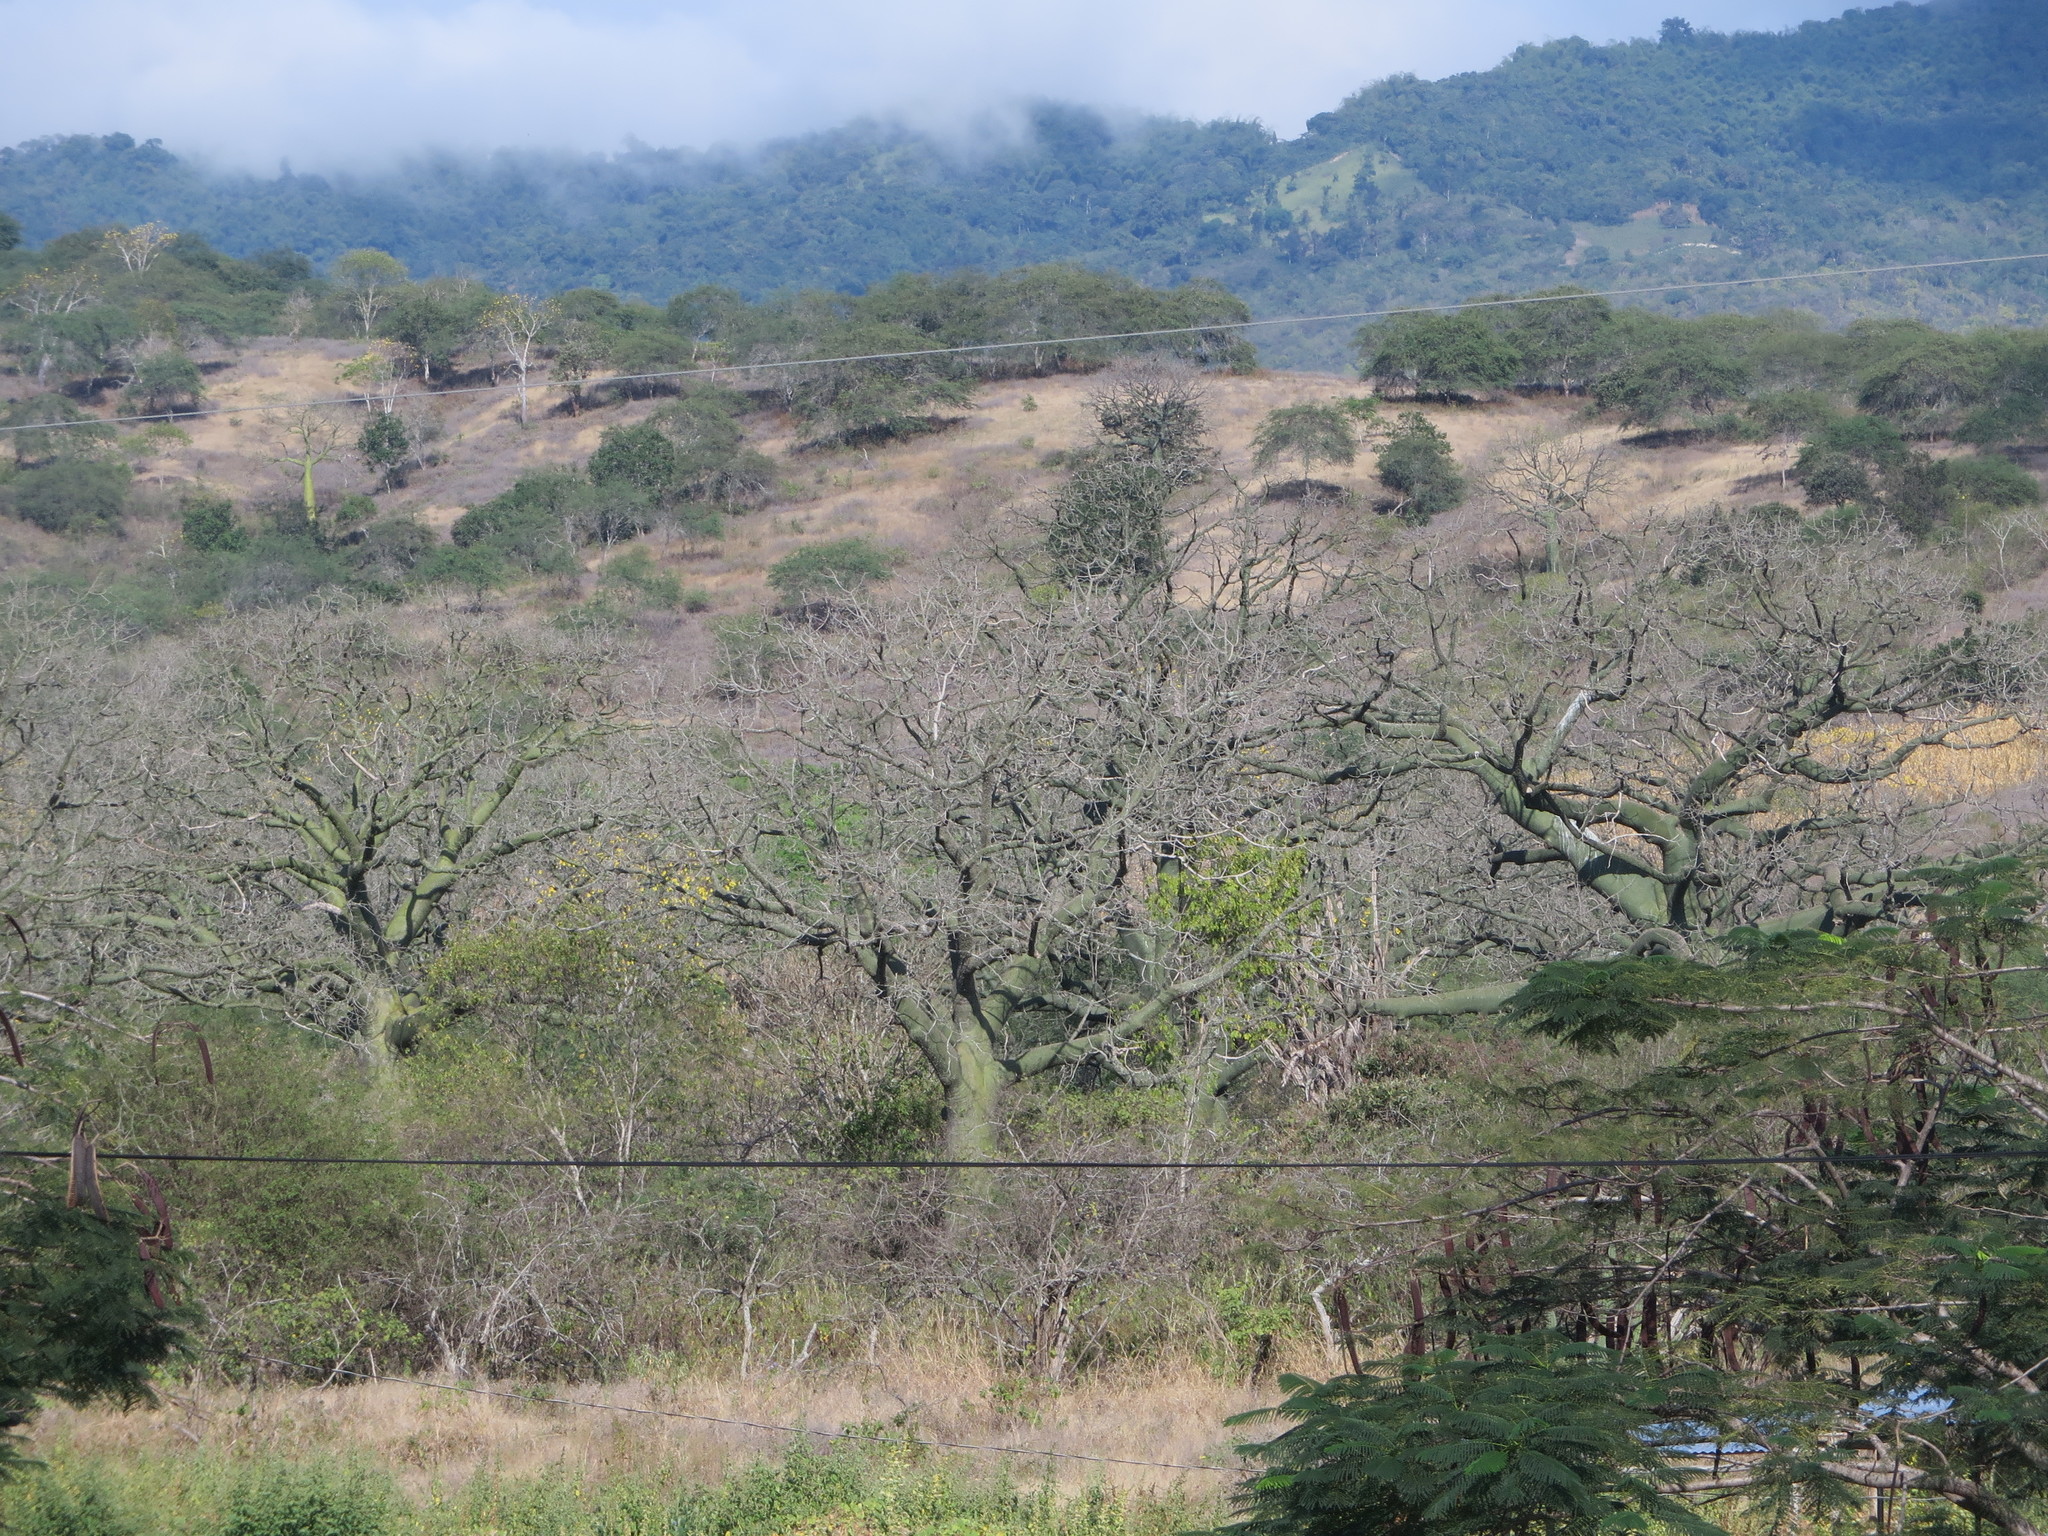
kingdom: Plantae
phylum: Tracheophyta
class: Magnoliopsida
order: Malvales
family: Malvaceae
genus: Ceiba
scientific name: Ceiba trischistandra
